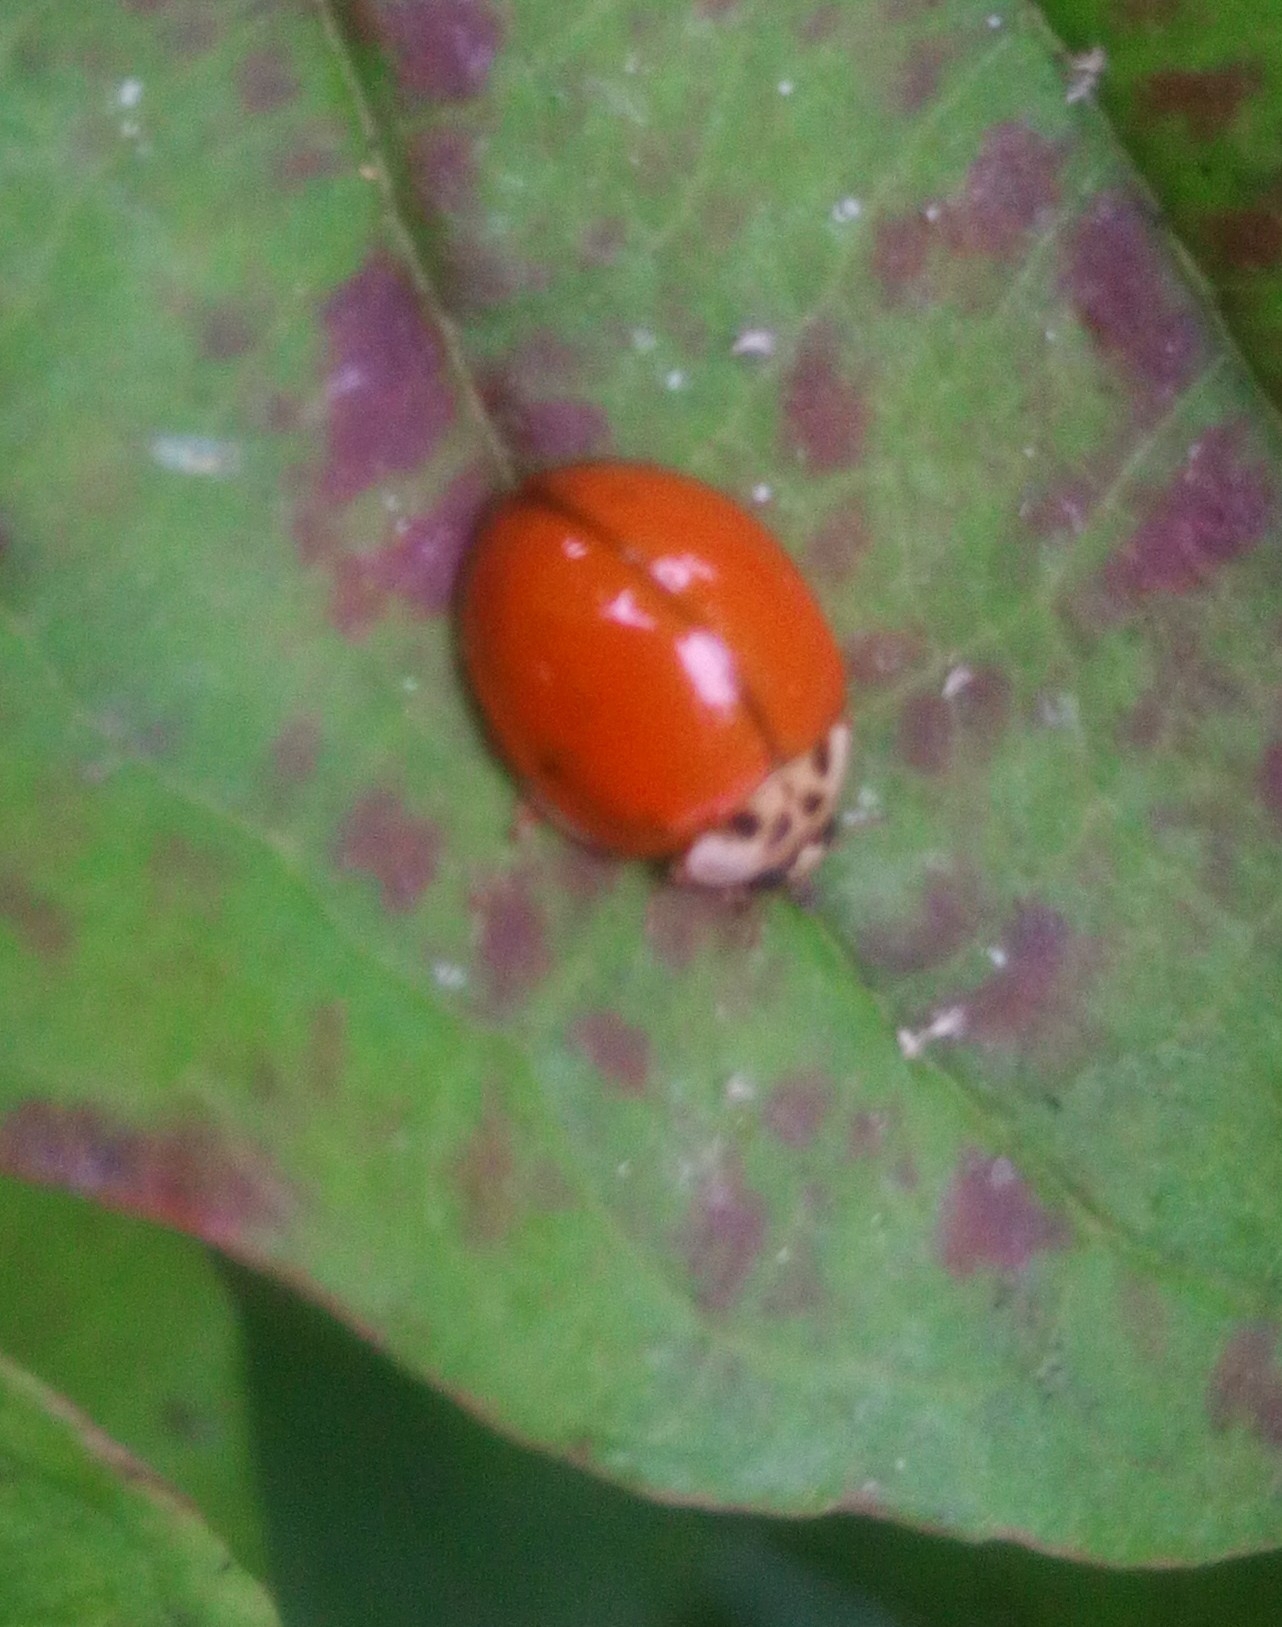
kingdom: Animalia
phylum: Arthropoda
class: Insecta
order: Coleoptera
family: Coccinellidae
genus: Harmonia
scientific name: Harmonia axyridis
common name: Harlequin ladybird
